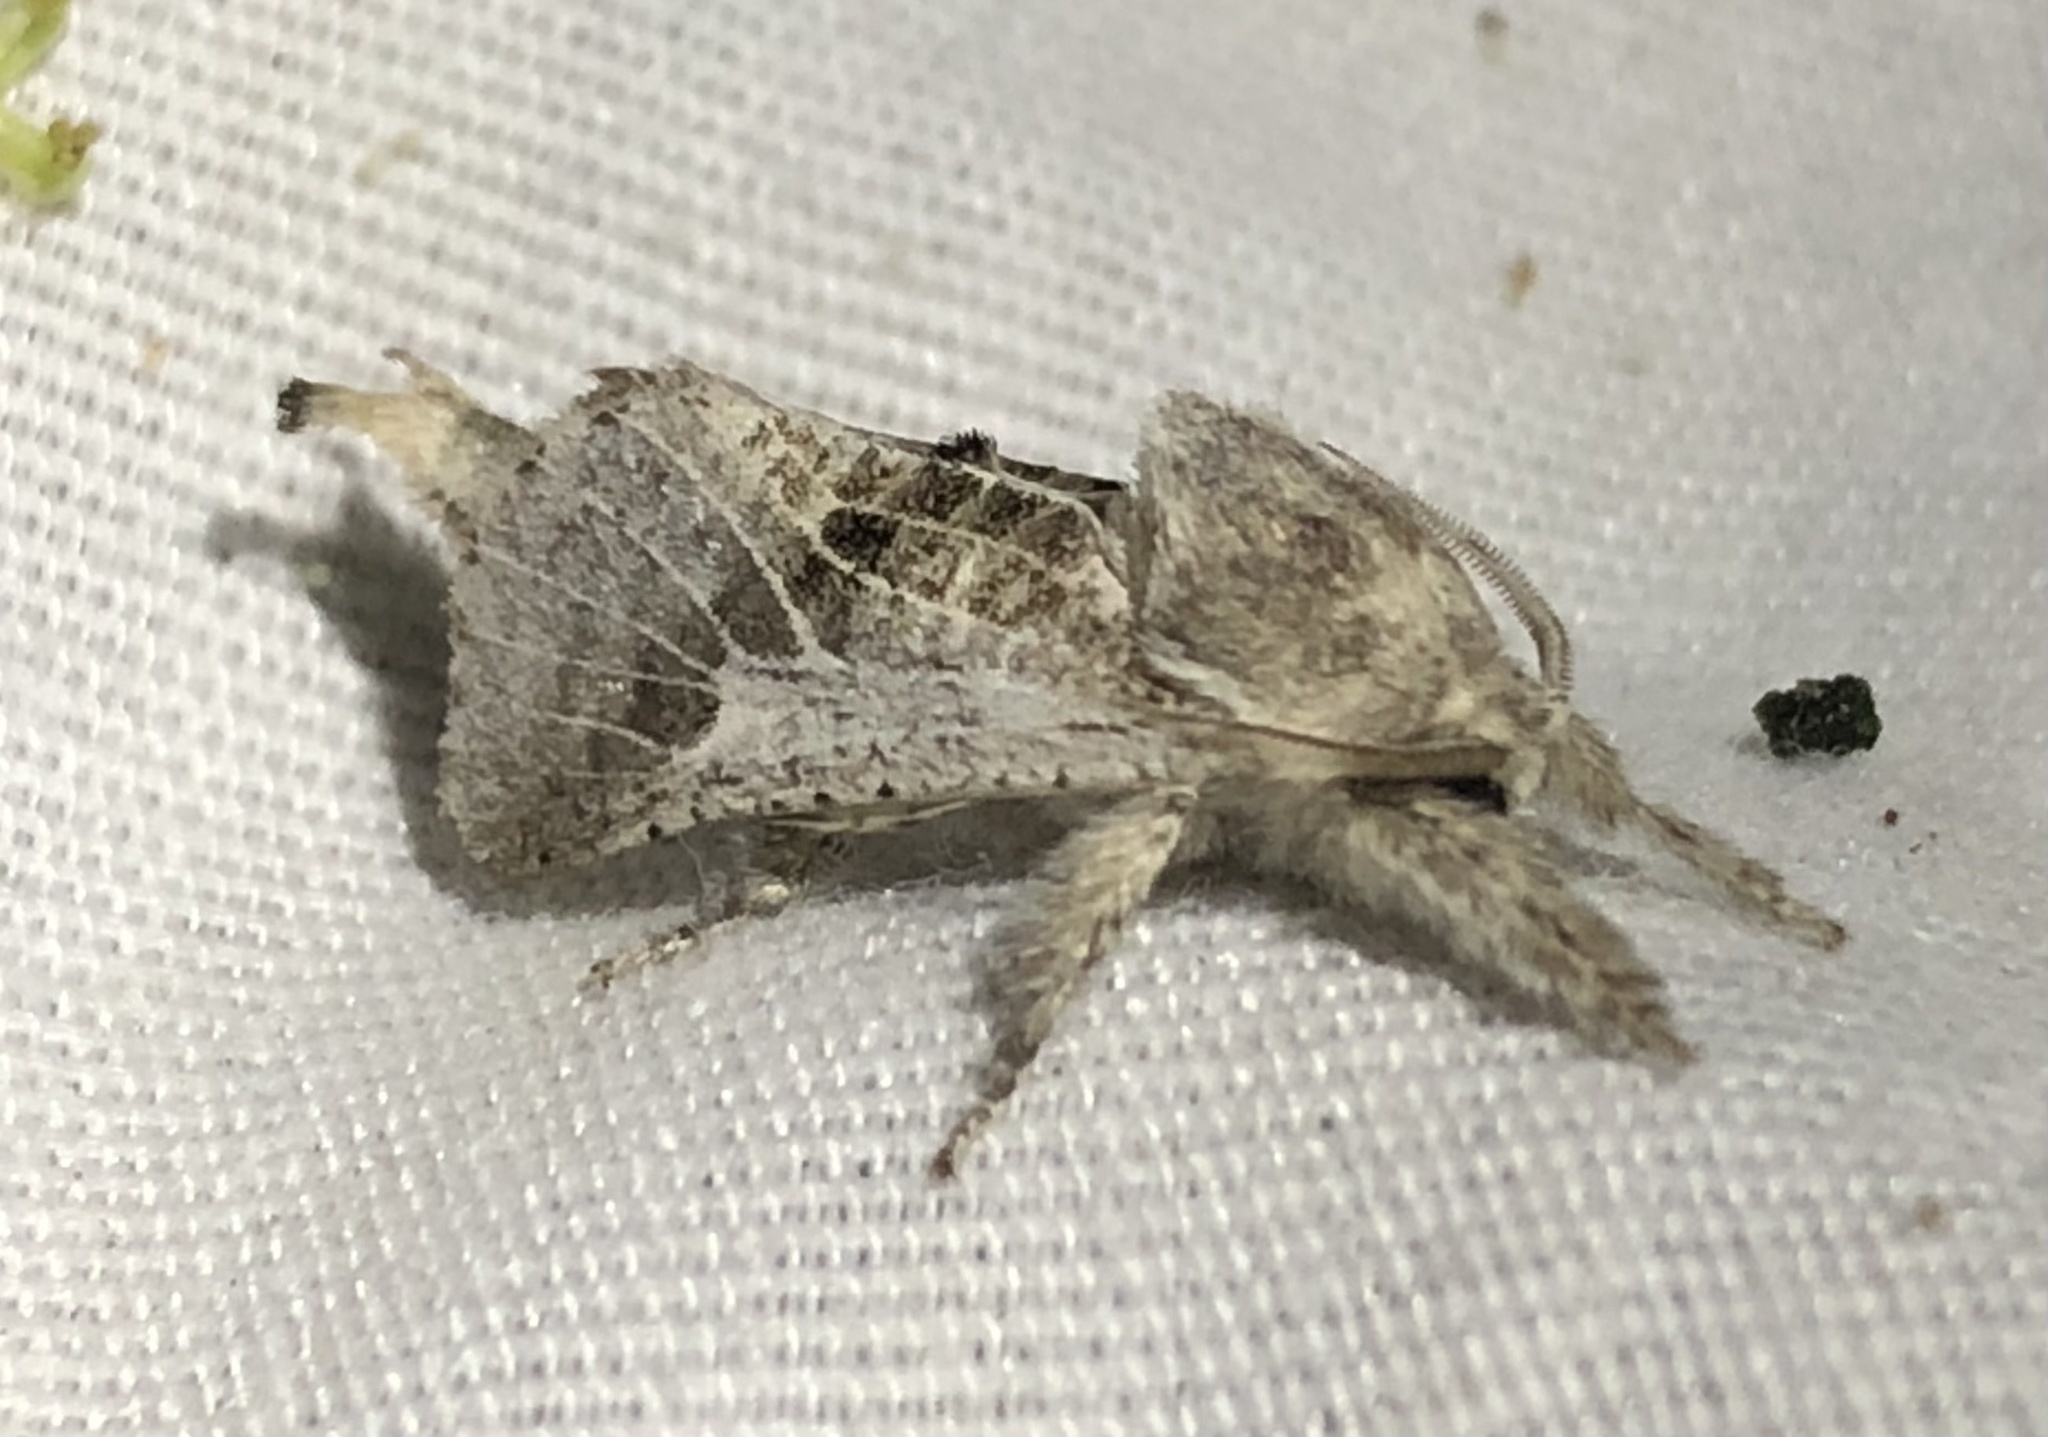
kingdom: Animalia
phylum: Arthropoda
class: Insecta
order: Lepidoptera
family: Cossidae
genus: Givira
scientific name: Givira
